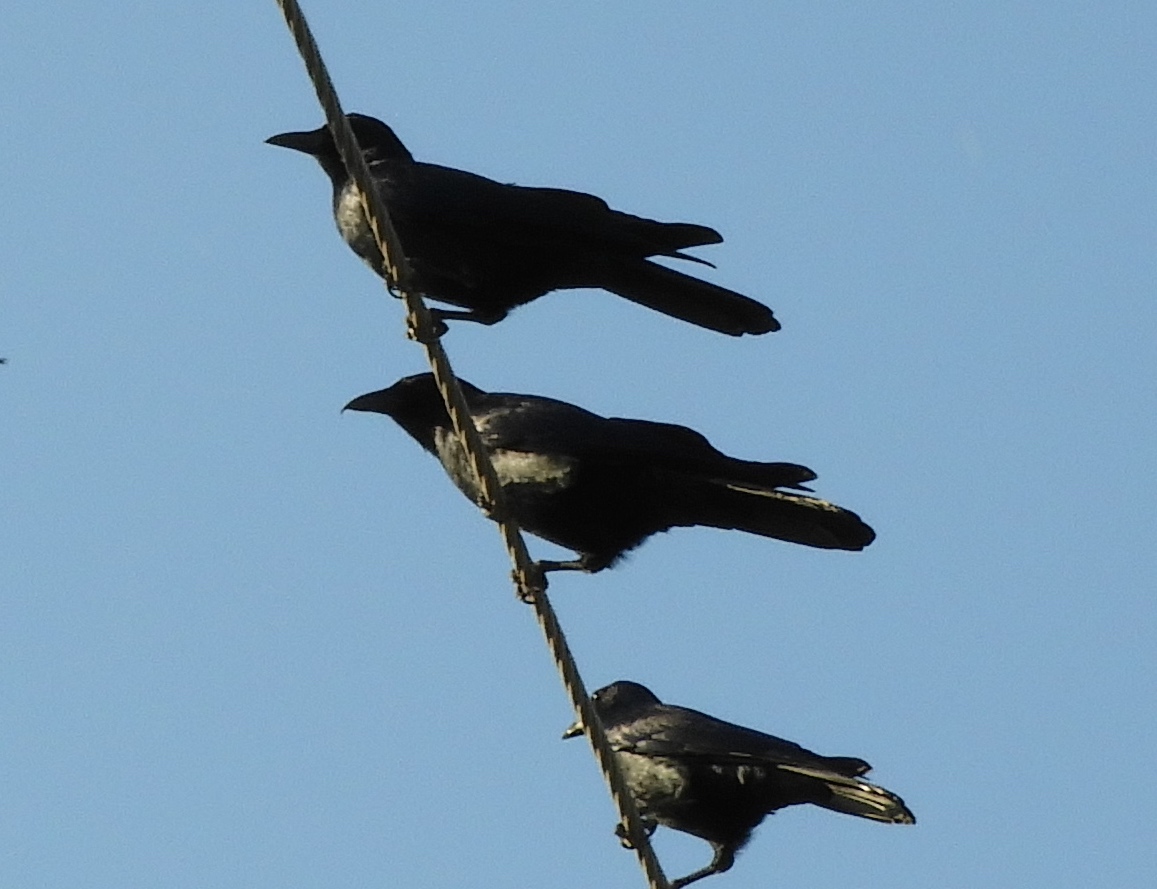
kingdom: Animalia
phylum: Chordata
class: Aves
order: Passeriformes
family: Corvidae
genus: Corvus
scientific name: Corvus sinaloae
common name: Sinaloa crow
